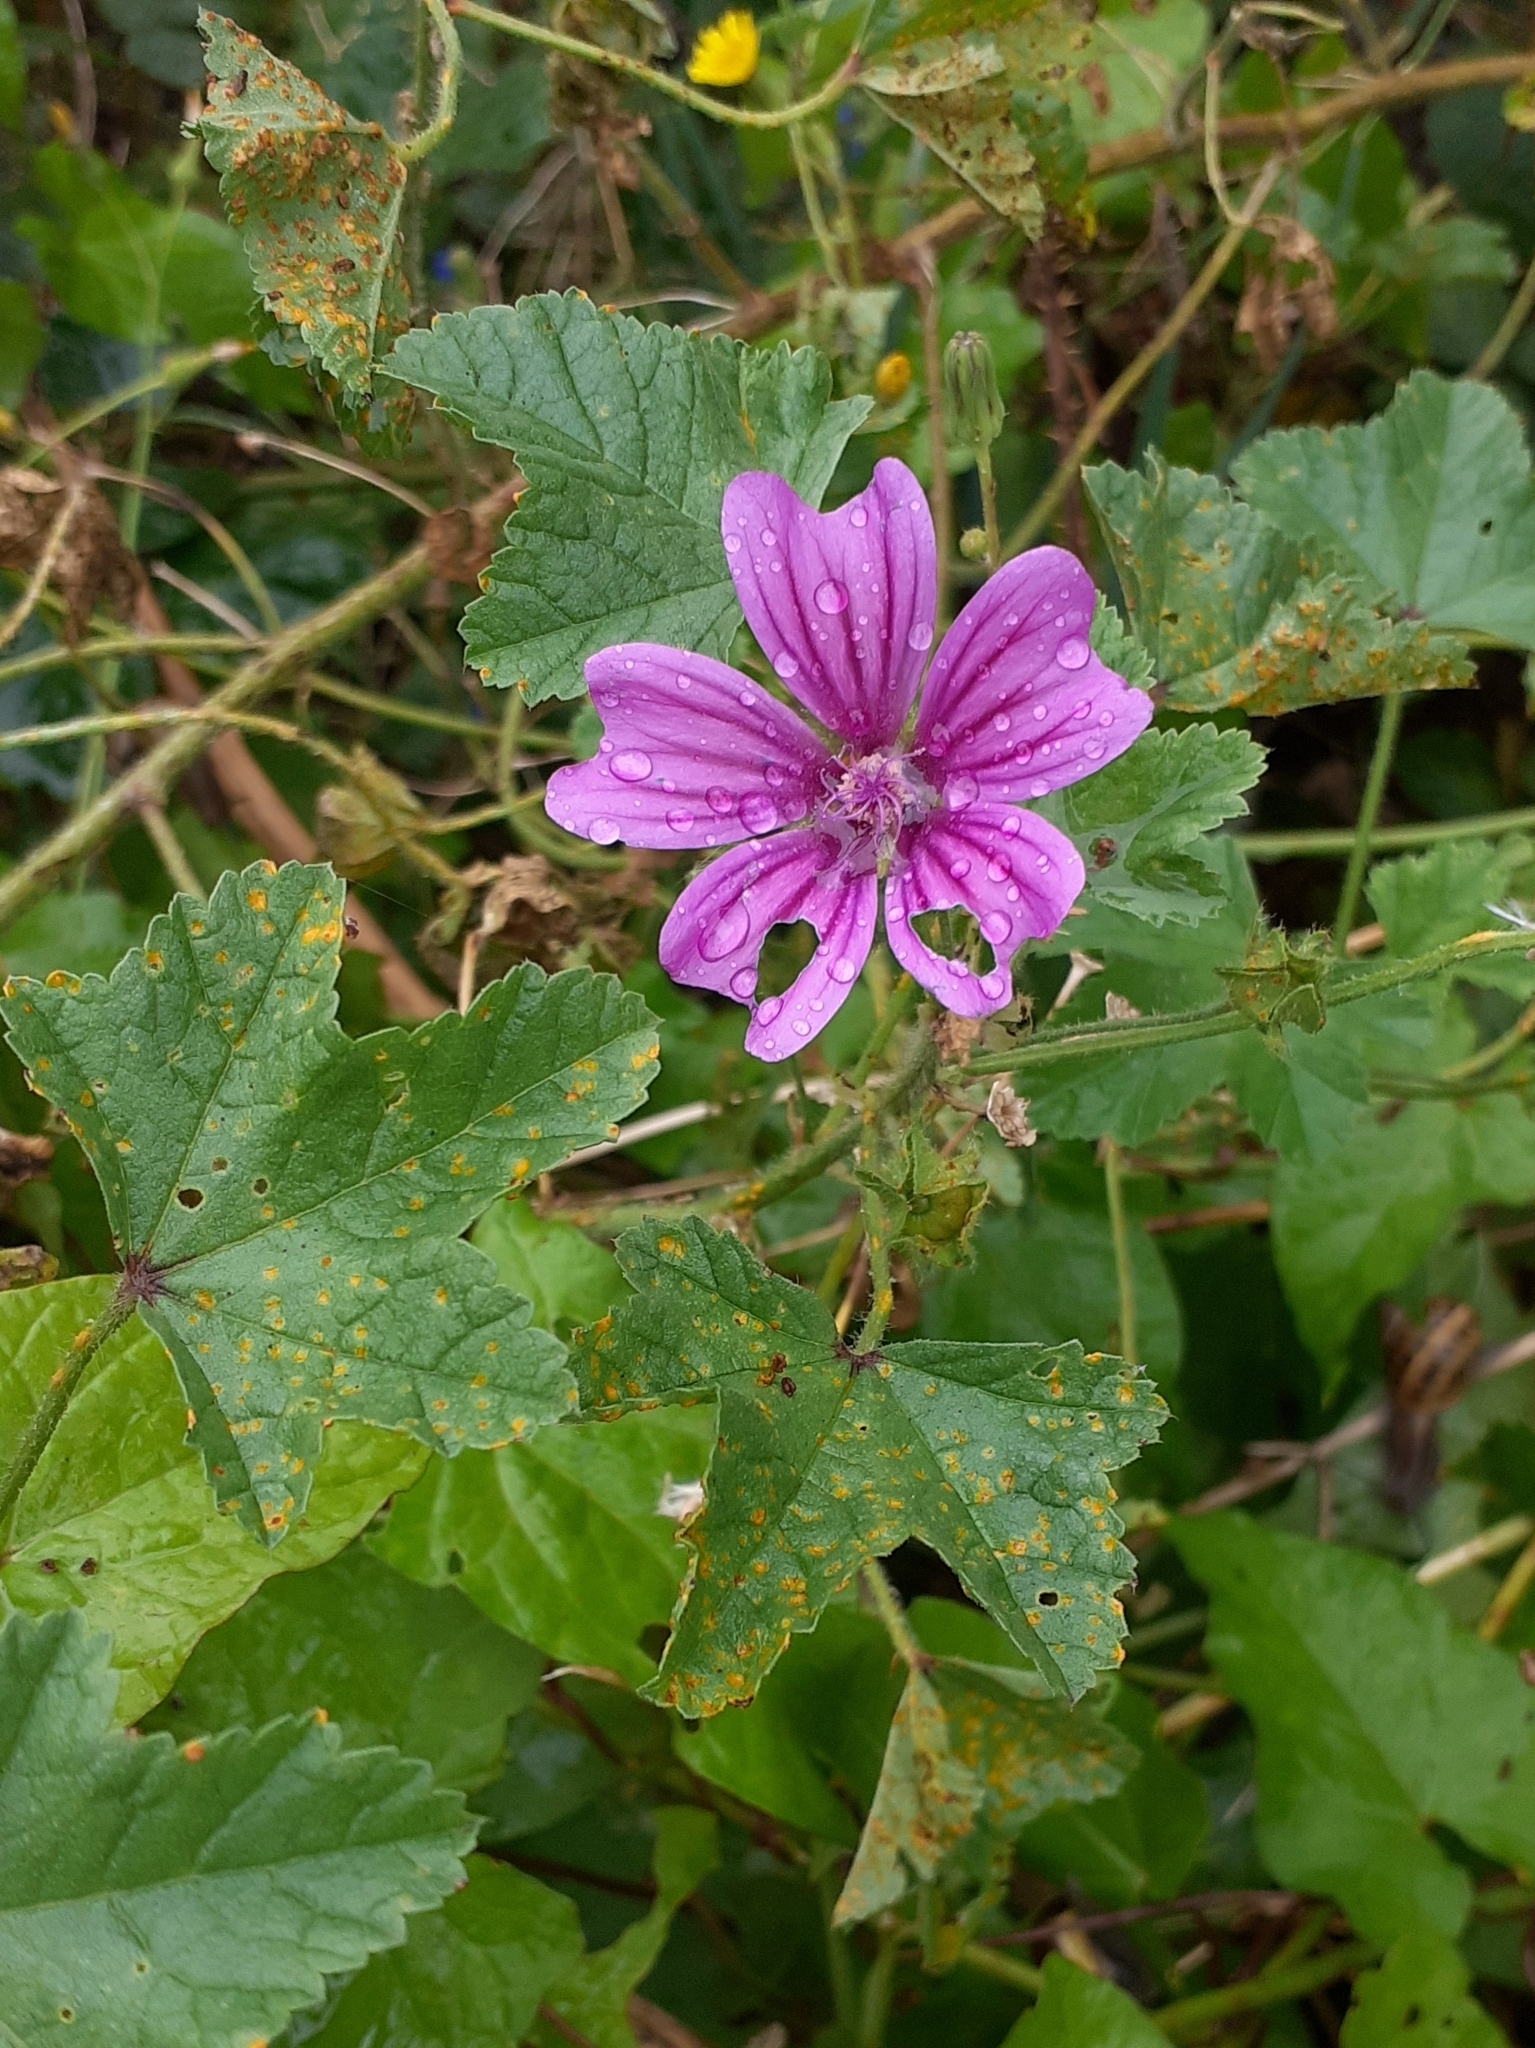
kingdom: Plantae
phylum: Tracheophyta
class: Magnoliopsida
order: Malvales
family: Malvaceae
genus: Malva
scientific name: Malva sylvestris
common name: Common mallow
